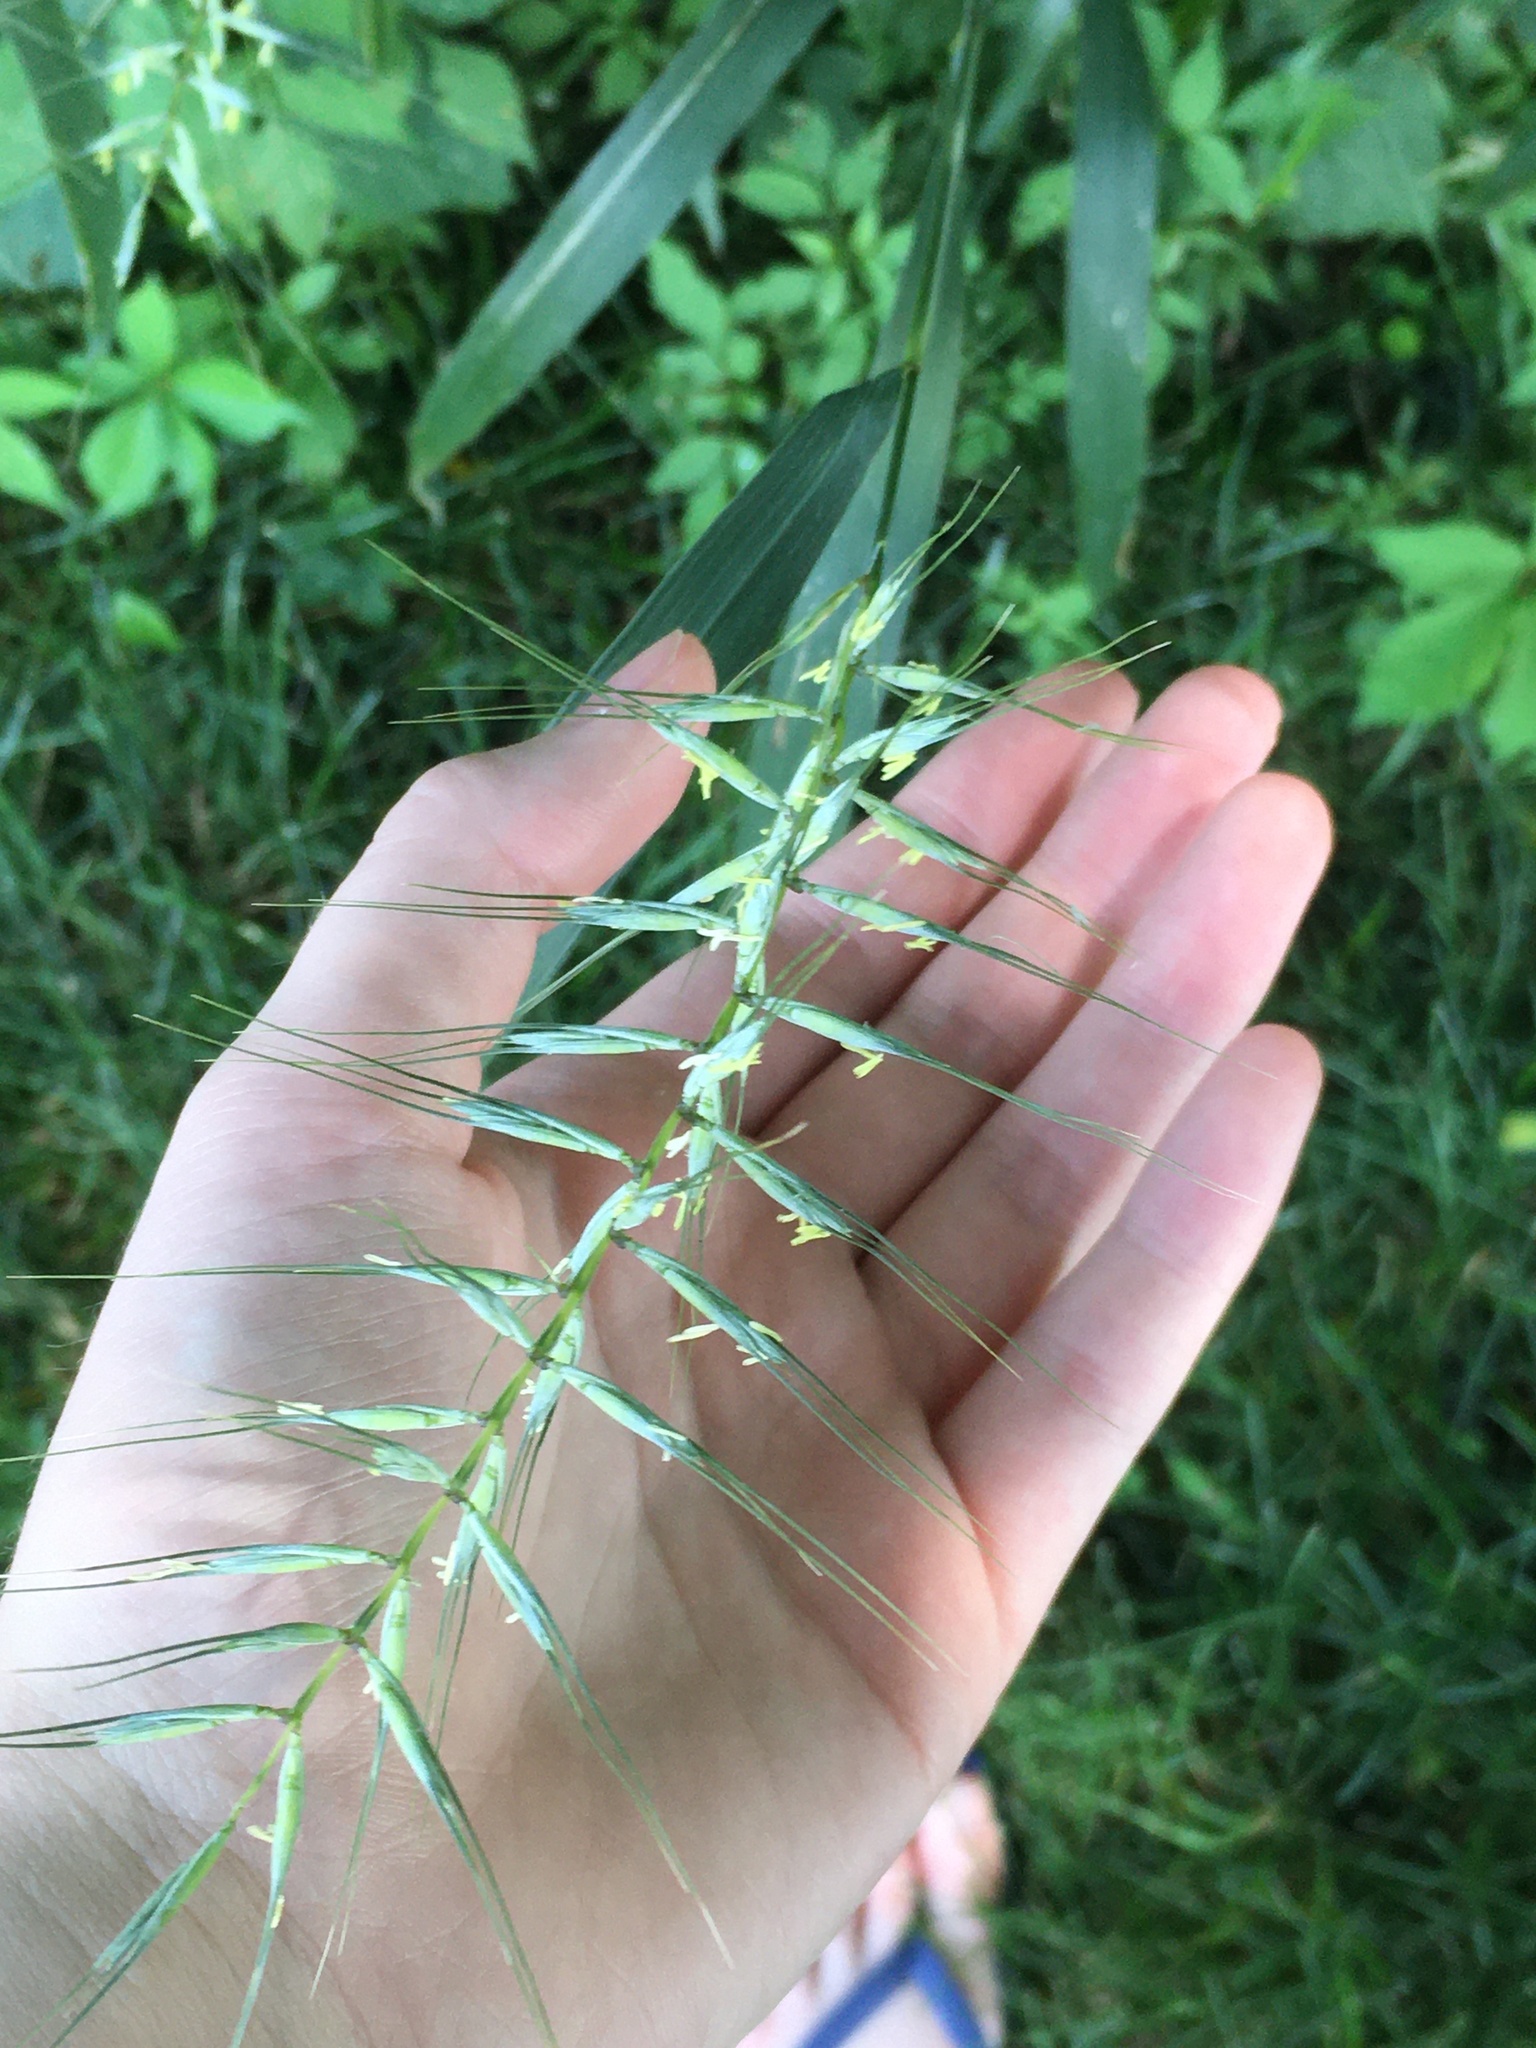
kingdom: Plantae
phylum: Tracheophyta
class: Liliopsida
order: Poales
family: Poaceae
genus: Elymus
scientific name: Elymus hystrix
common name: Bottlebrush grass
